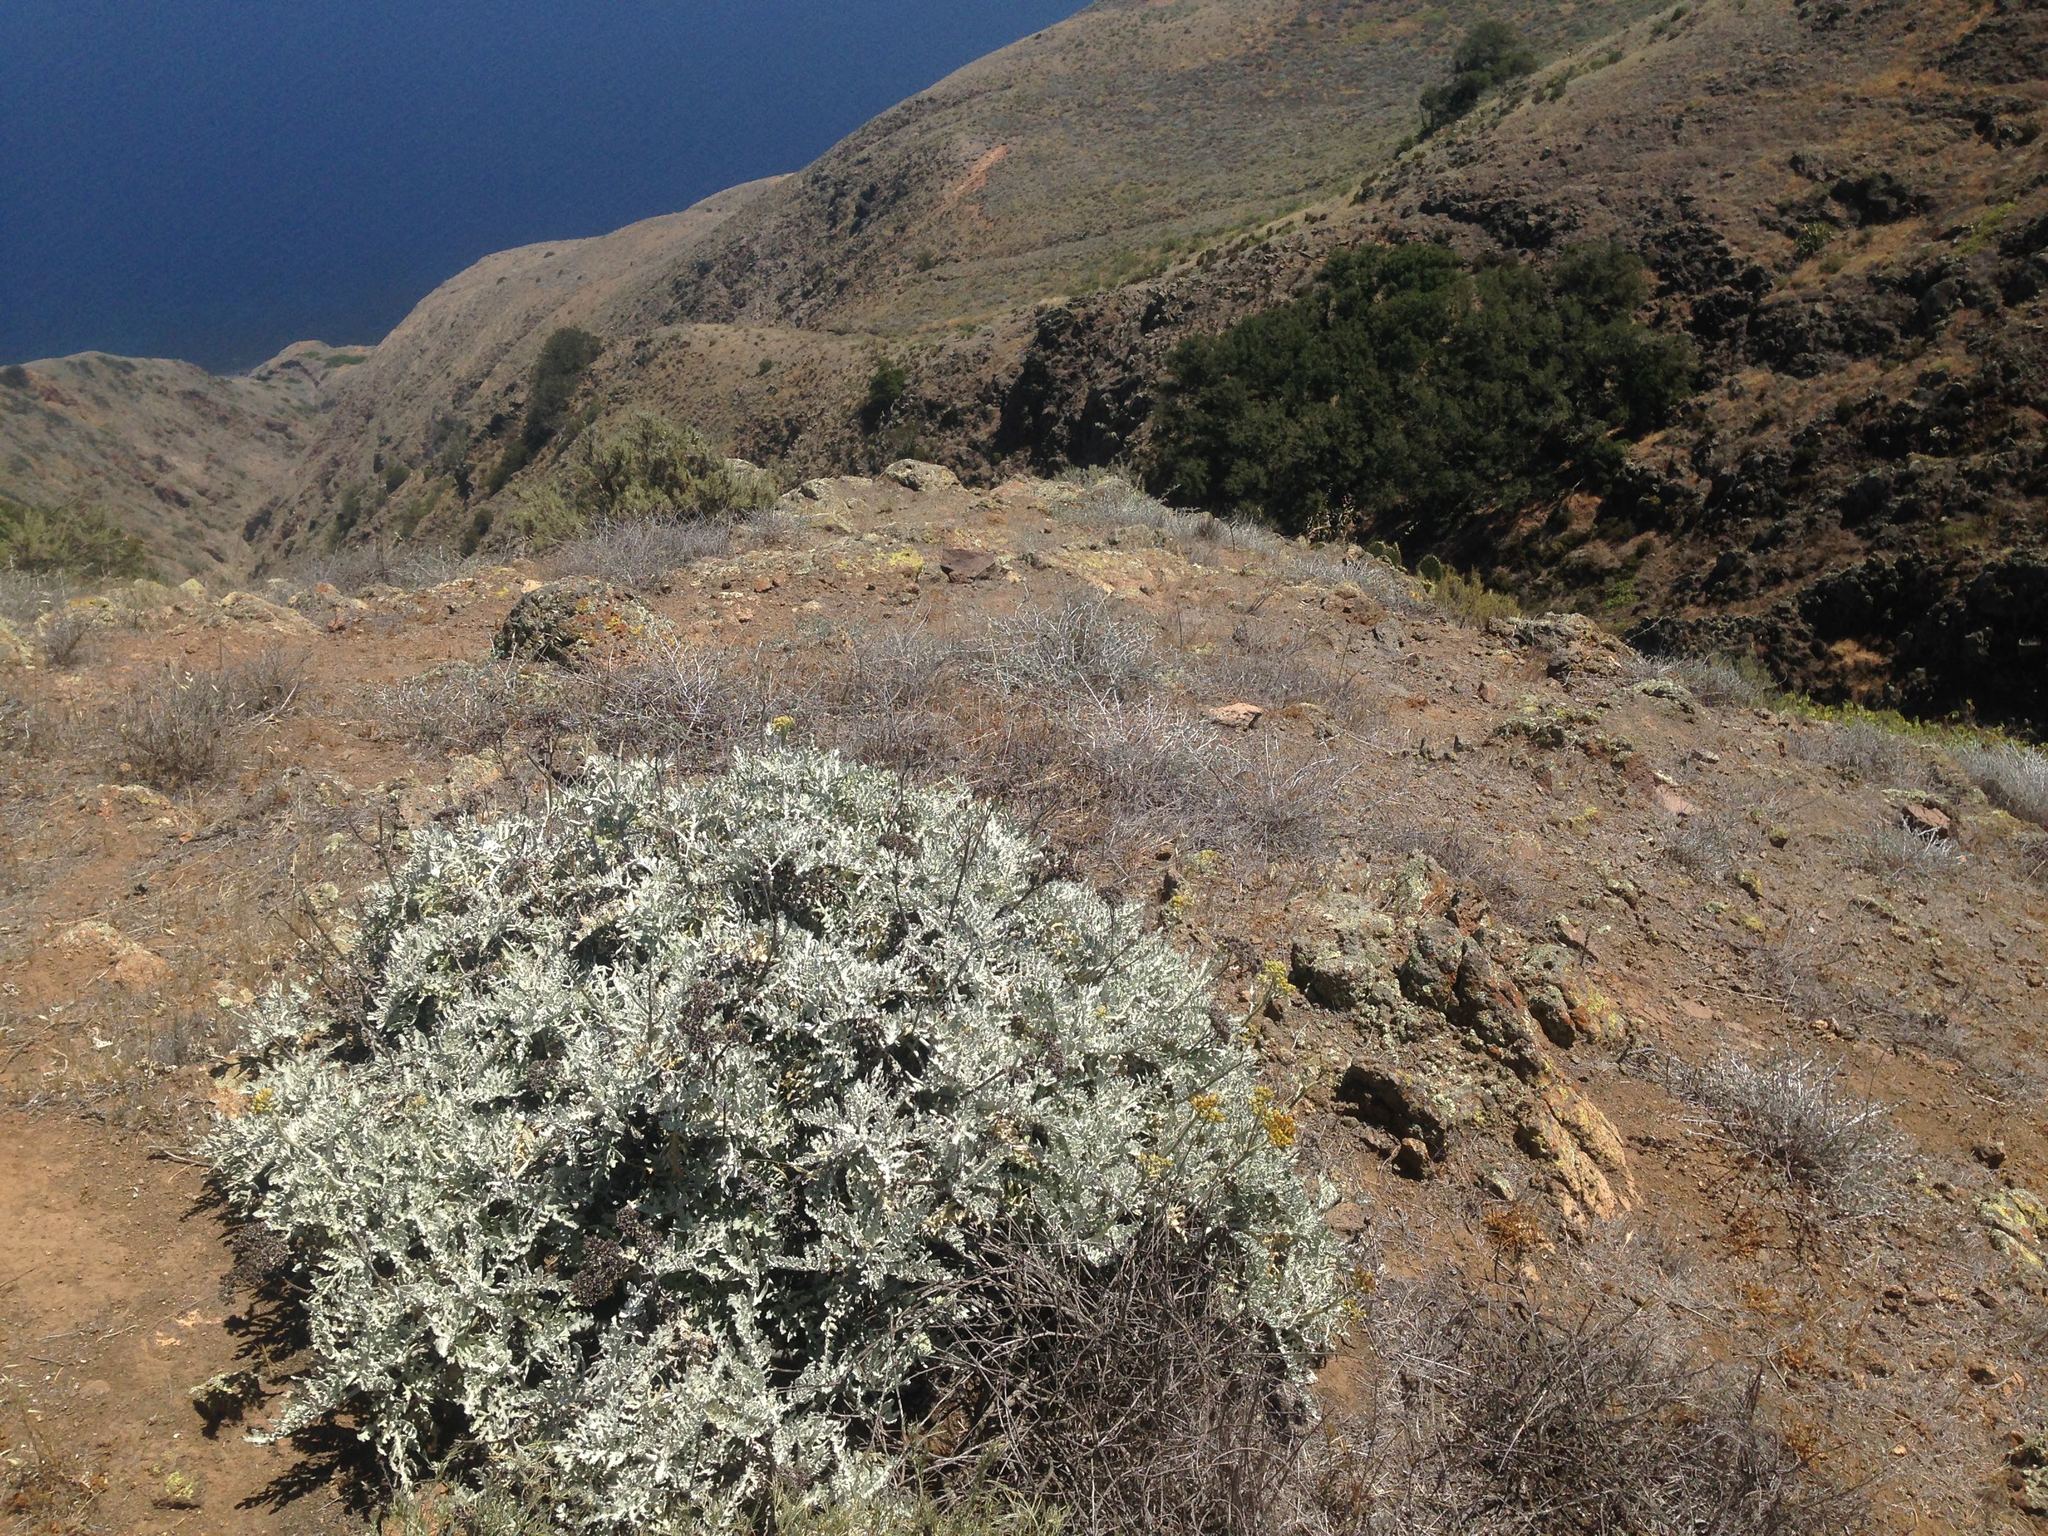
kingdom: Plantae
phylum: Tracheophyta
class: Magnoliopsida
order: Asterales
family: Asteraceae
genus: Constancea
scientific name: Constancea nevinii
